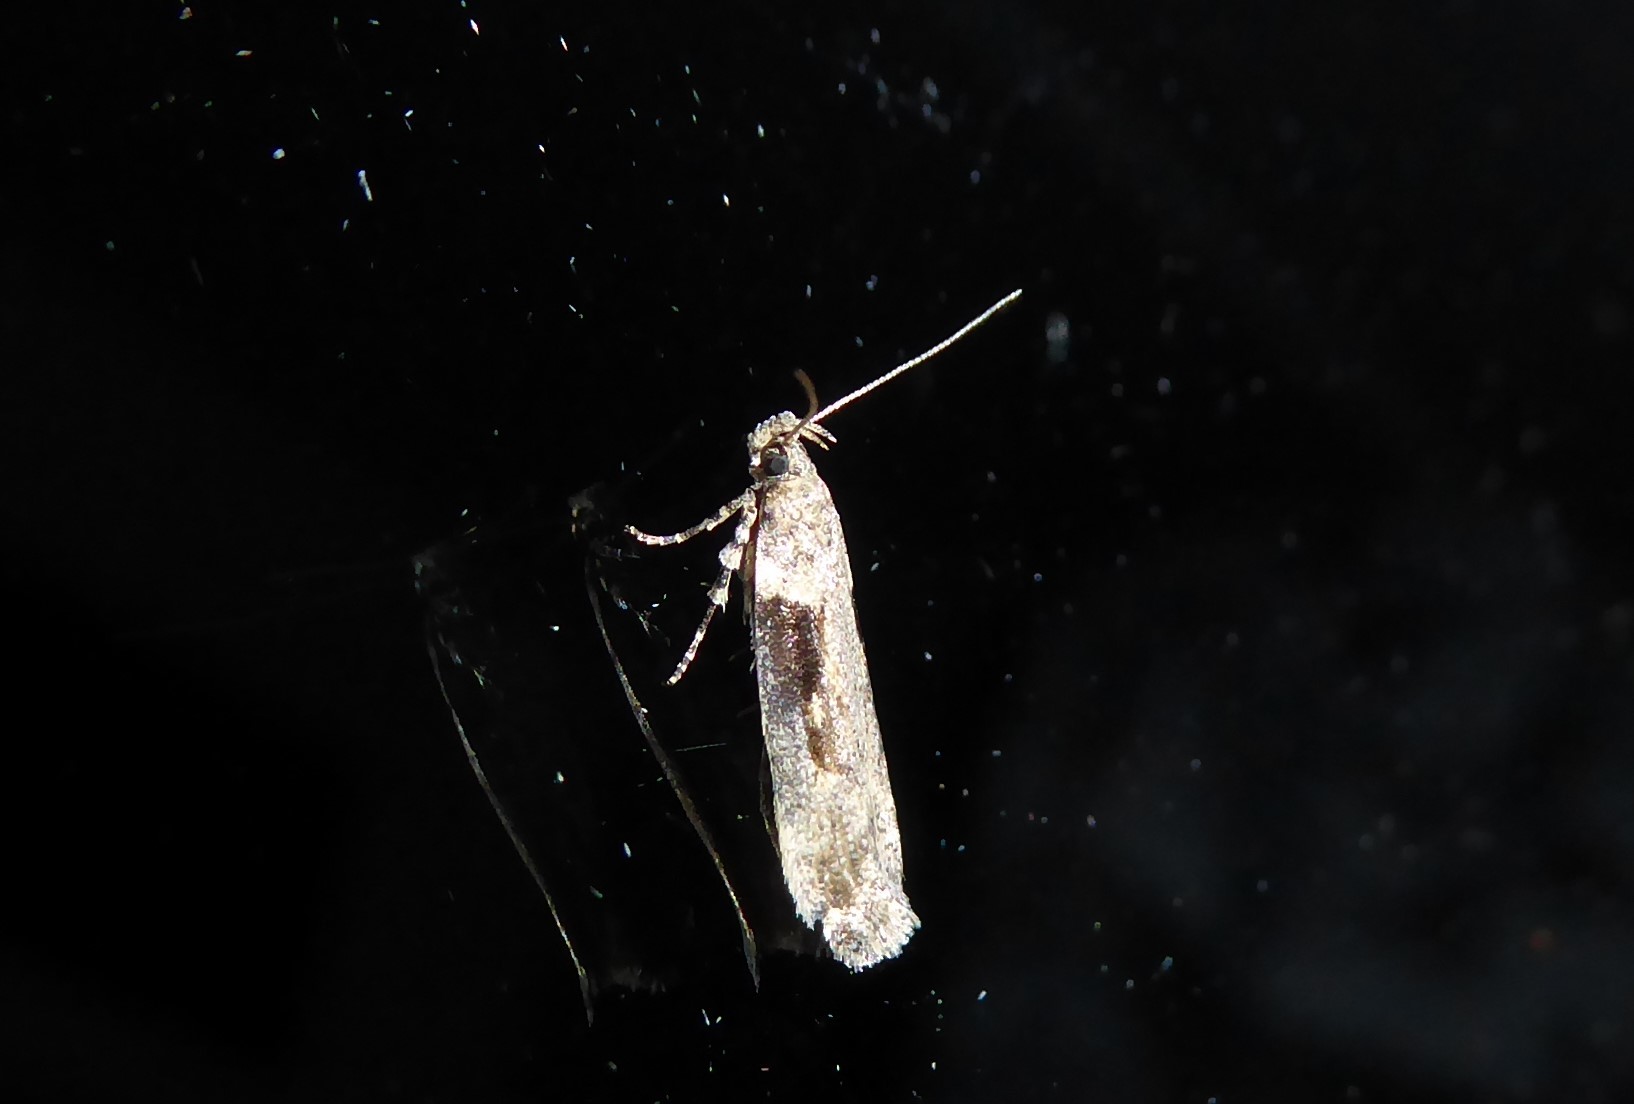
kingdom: Animalia
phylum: Arthropoda
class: Insecta
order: Lepidoptera
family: Gelechiidae
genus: Symmetrischema
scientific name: Symmetrischema tangolias
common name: Moth
